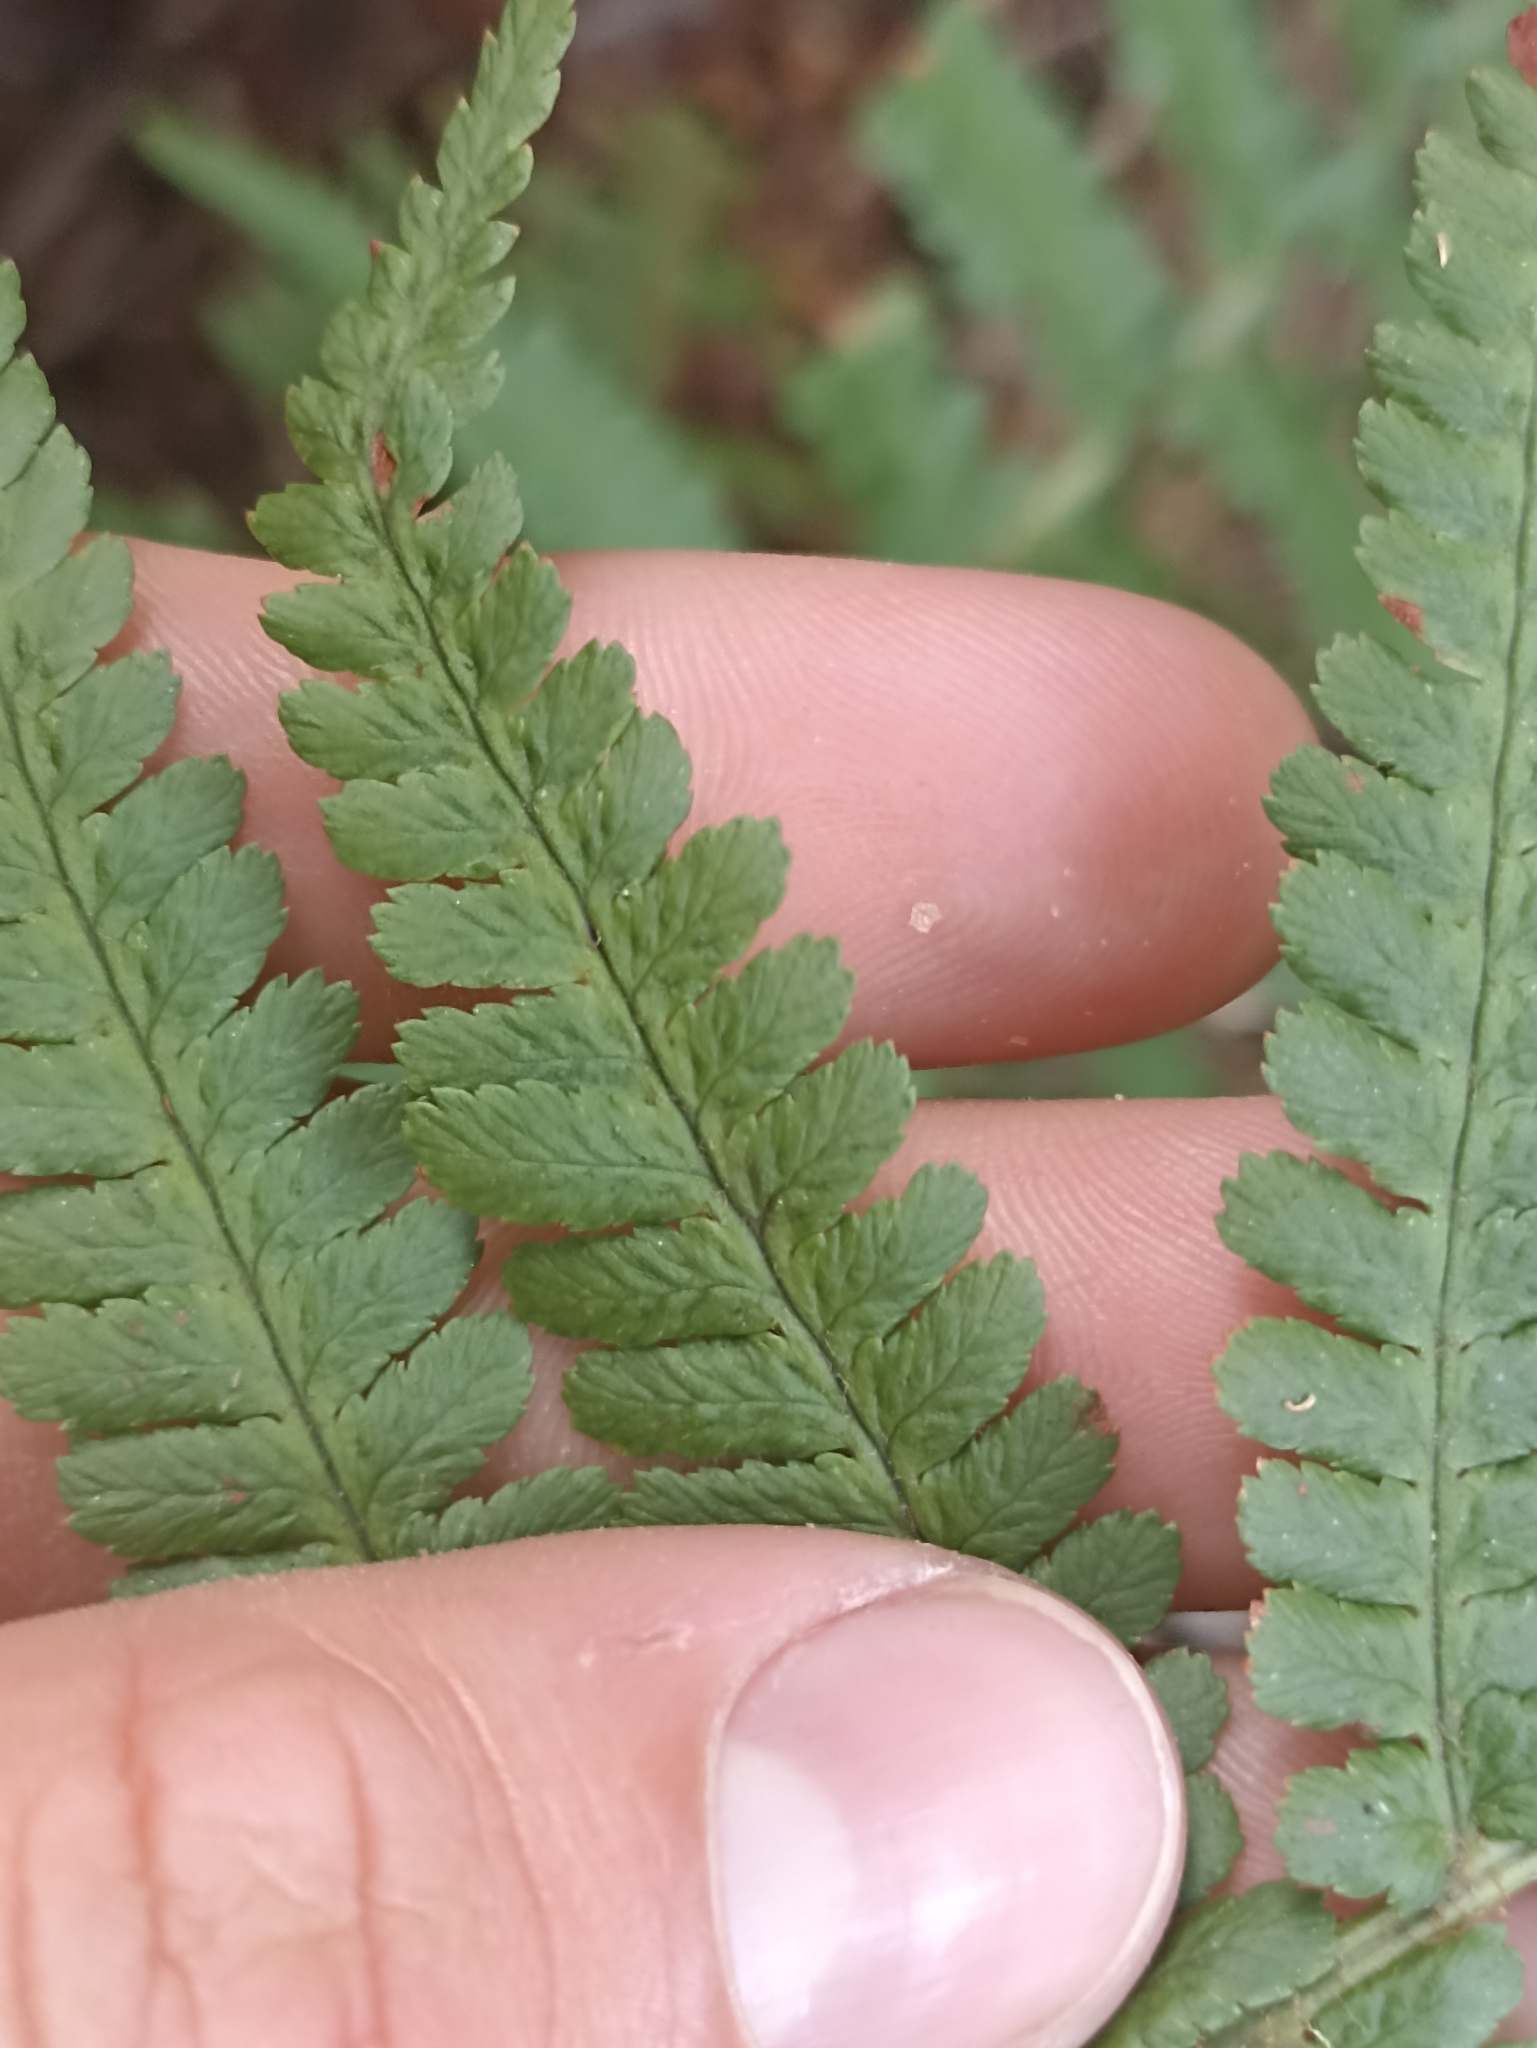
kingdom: Plantae
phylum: Tracheophyta
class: Polypodiopsida
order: Polypodiales
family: Dryopteridaceae
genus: Dryopteris
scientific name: Dryopteris filix-mas
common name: Male fern
